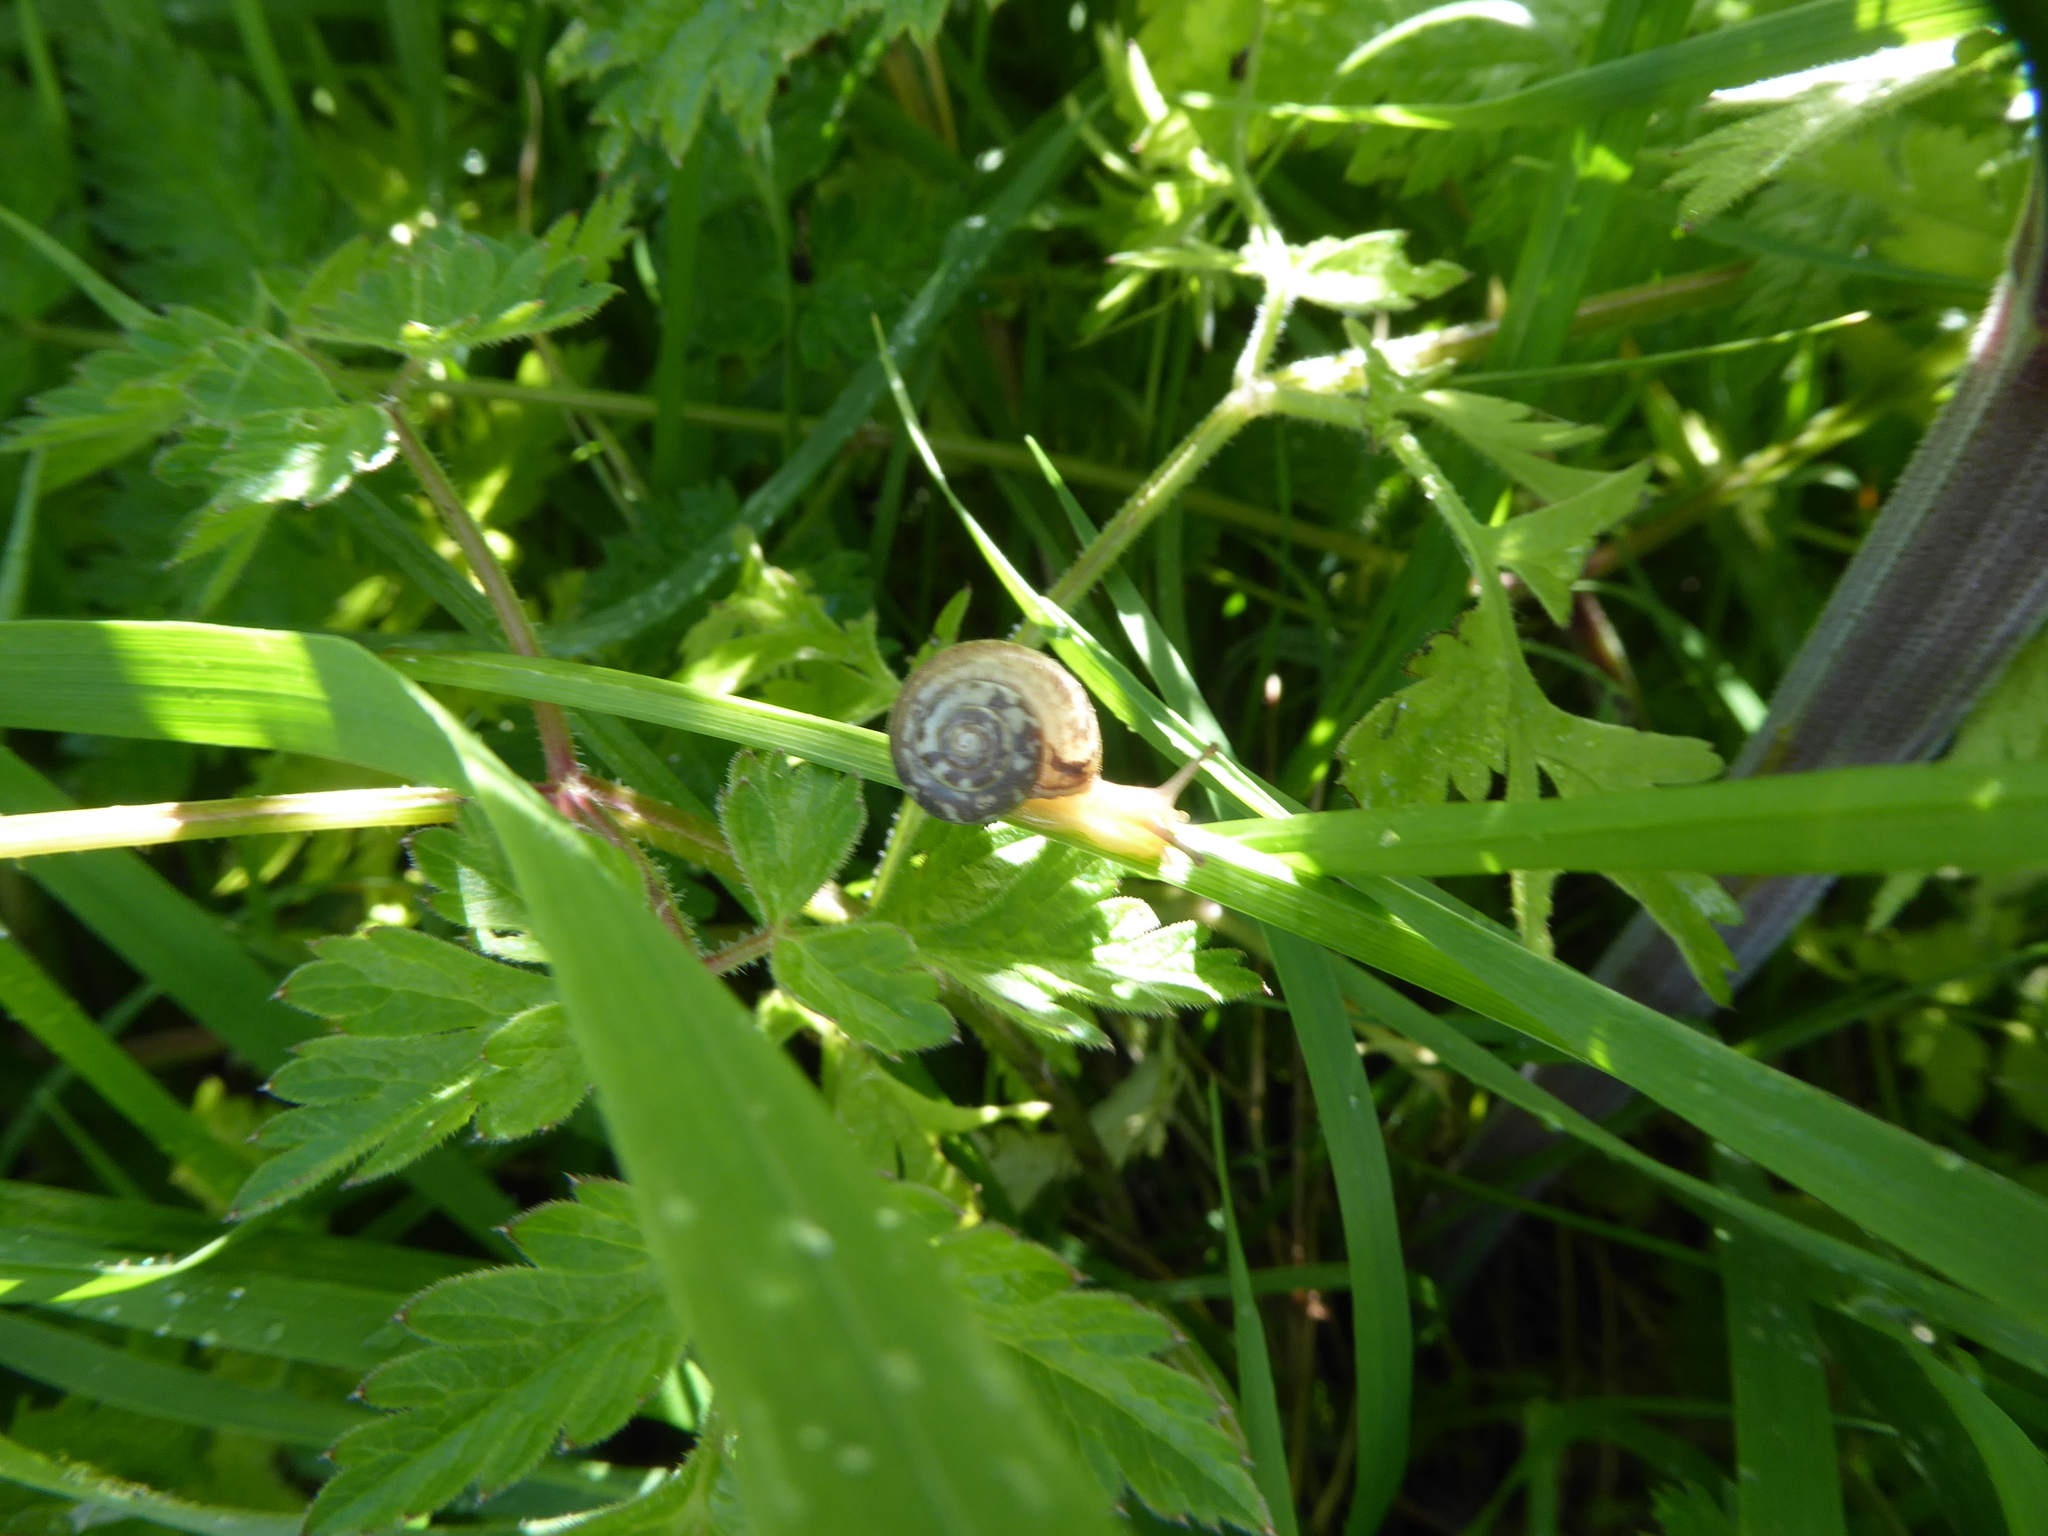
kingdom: Animalia
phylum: Mollusca
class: Gastropoda
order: Stylommatophora
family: Hygromiidae
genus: Monacha
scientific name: Monacha cantiana
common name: Kentish snail
